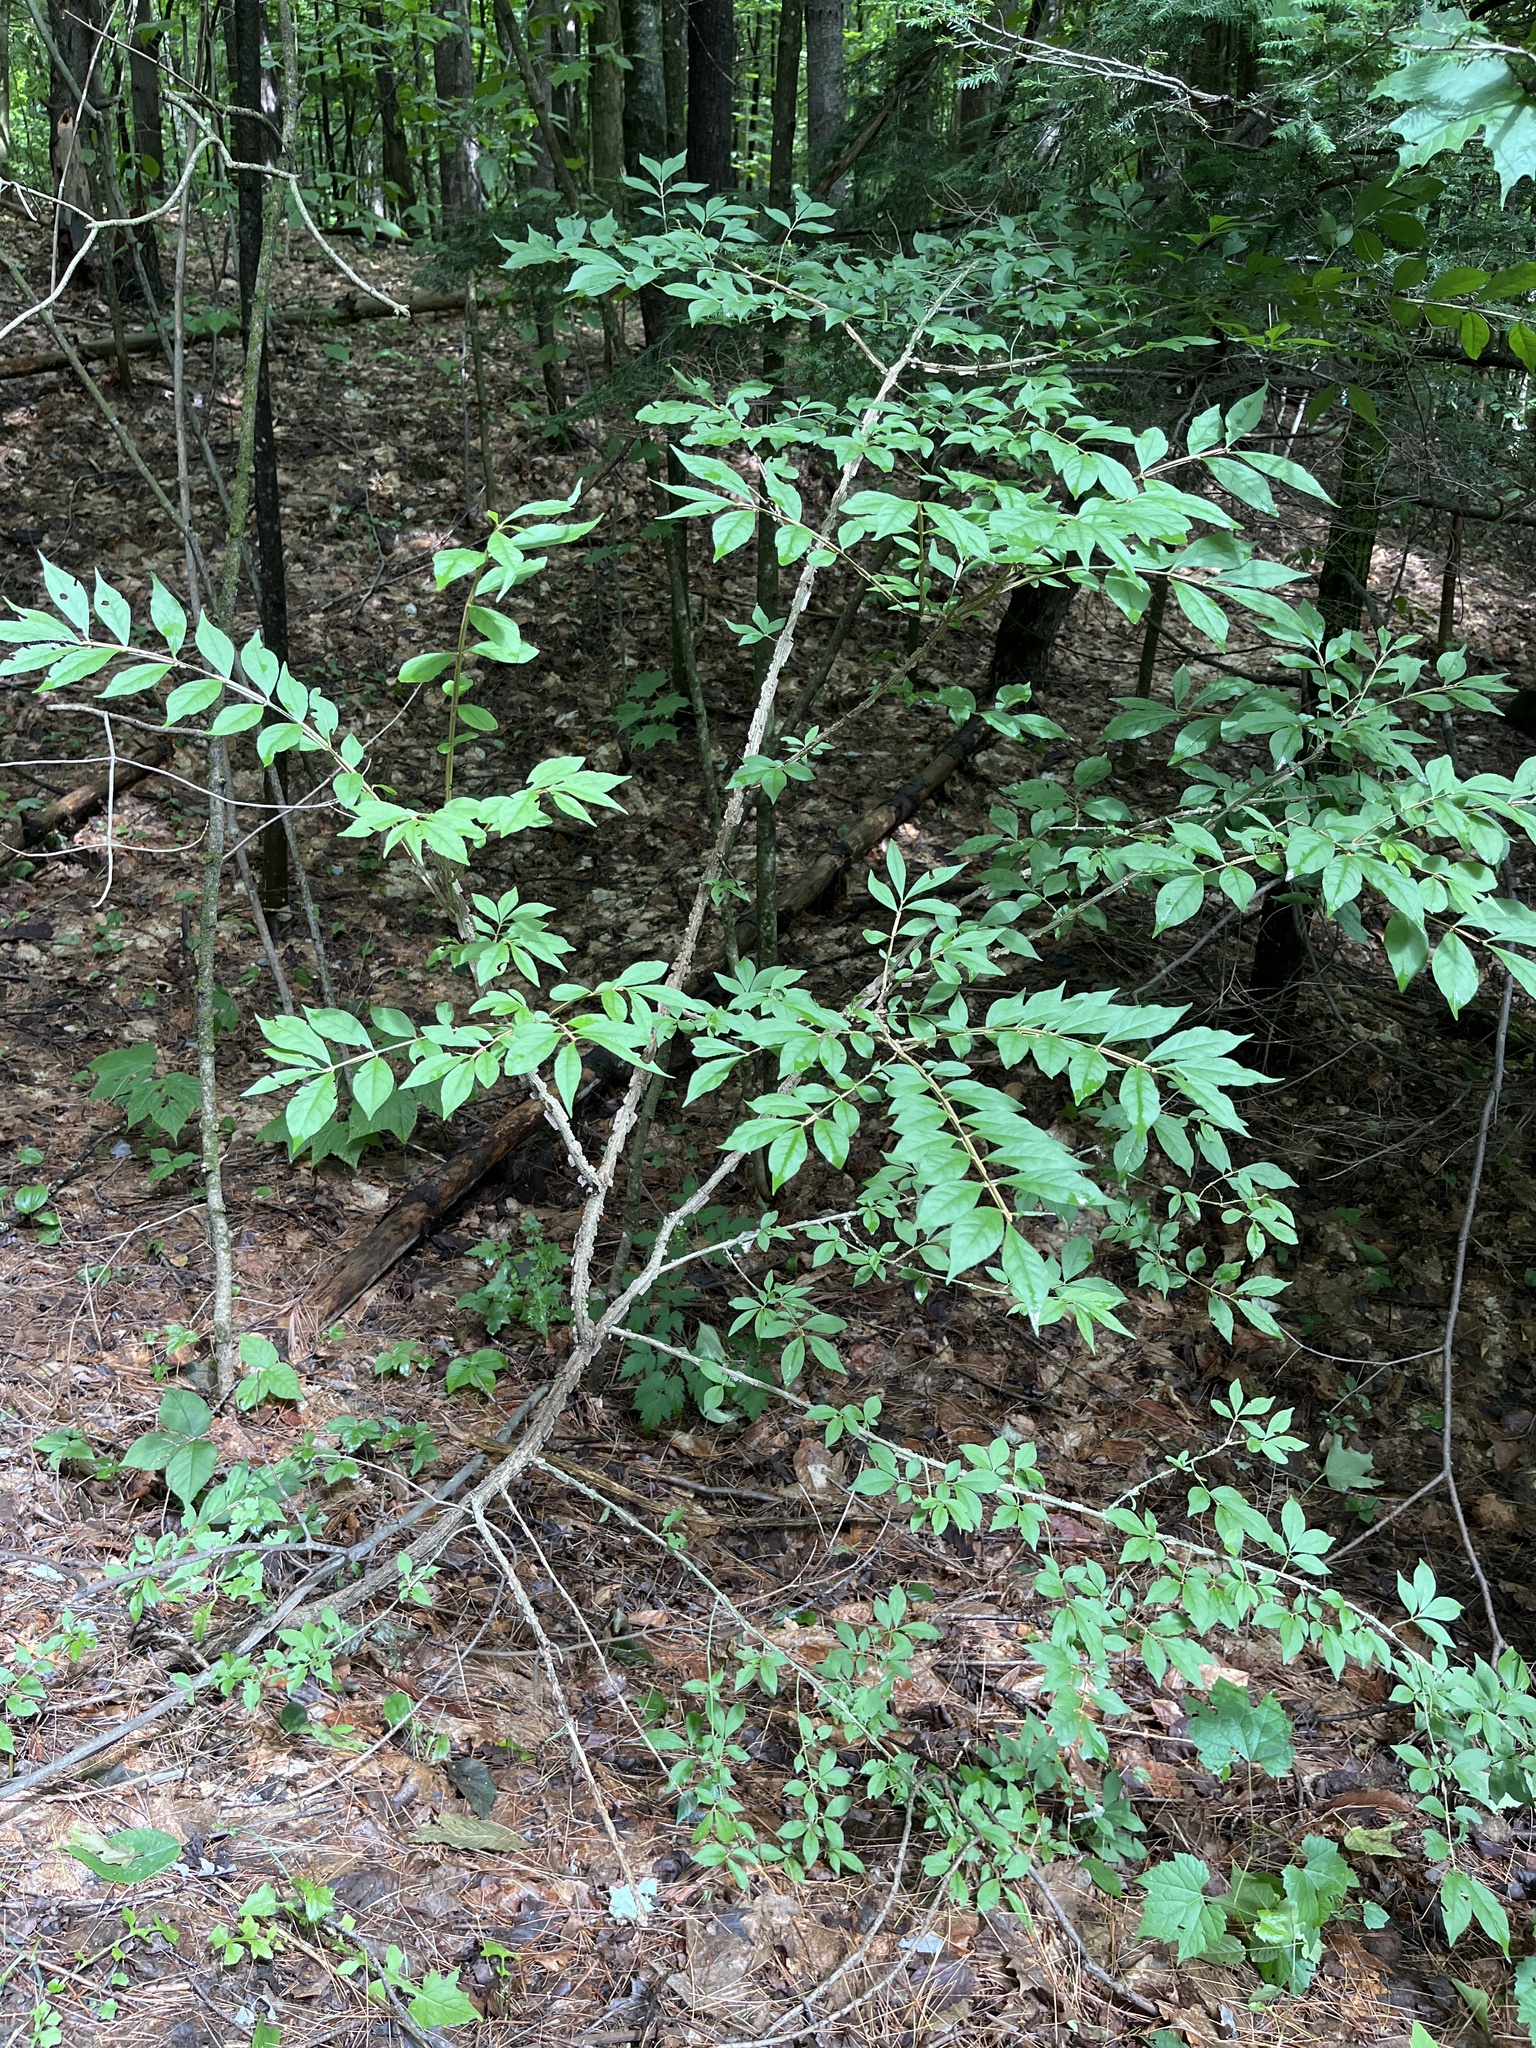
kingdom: Plantae
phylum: Tracheophyta
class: Magnoliopsida
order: Celastrales
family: Celastraceae
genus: Euonymus
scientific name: Euonymus alatus
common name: Winged euonymus
